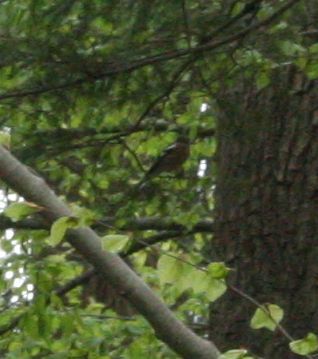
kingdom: Animalia
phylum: Chordata
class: Aves
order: Passeriformes
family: Fringillidae
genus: Fringilla
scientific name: Fringilla coelebs
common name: Common chaffinch
